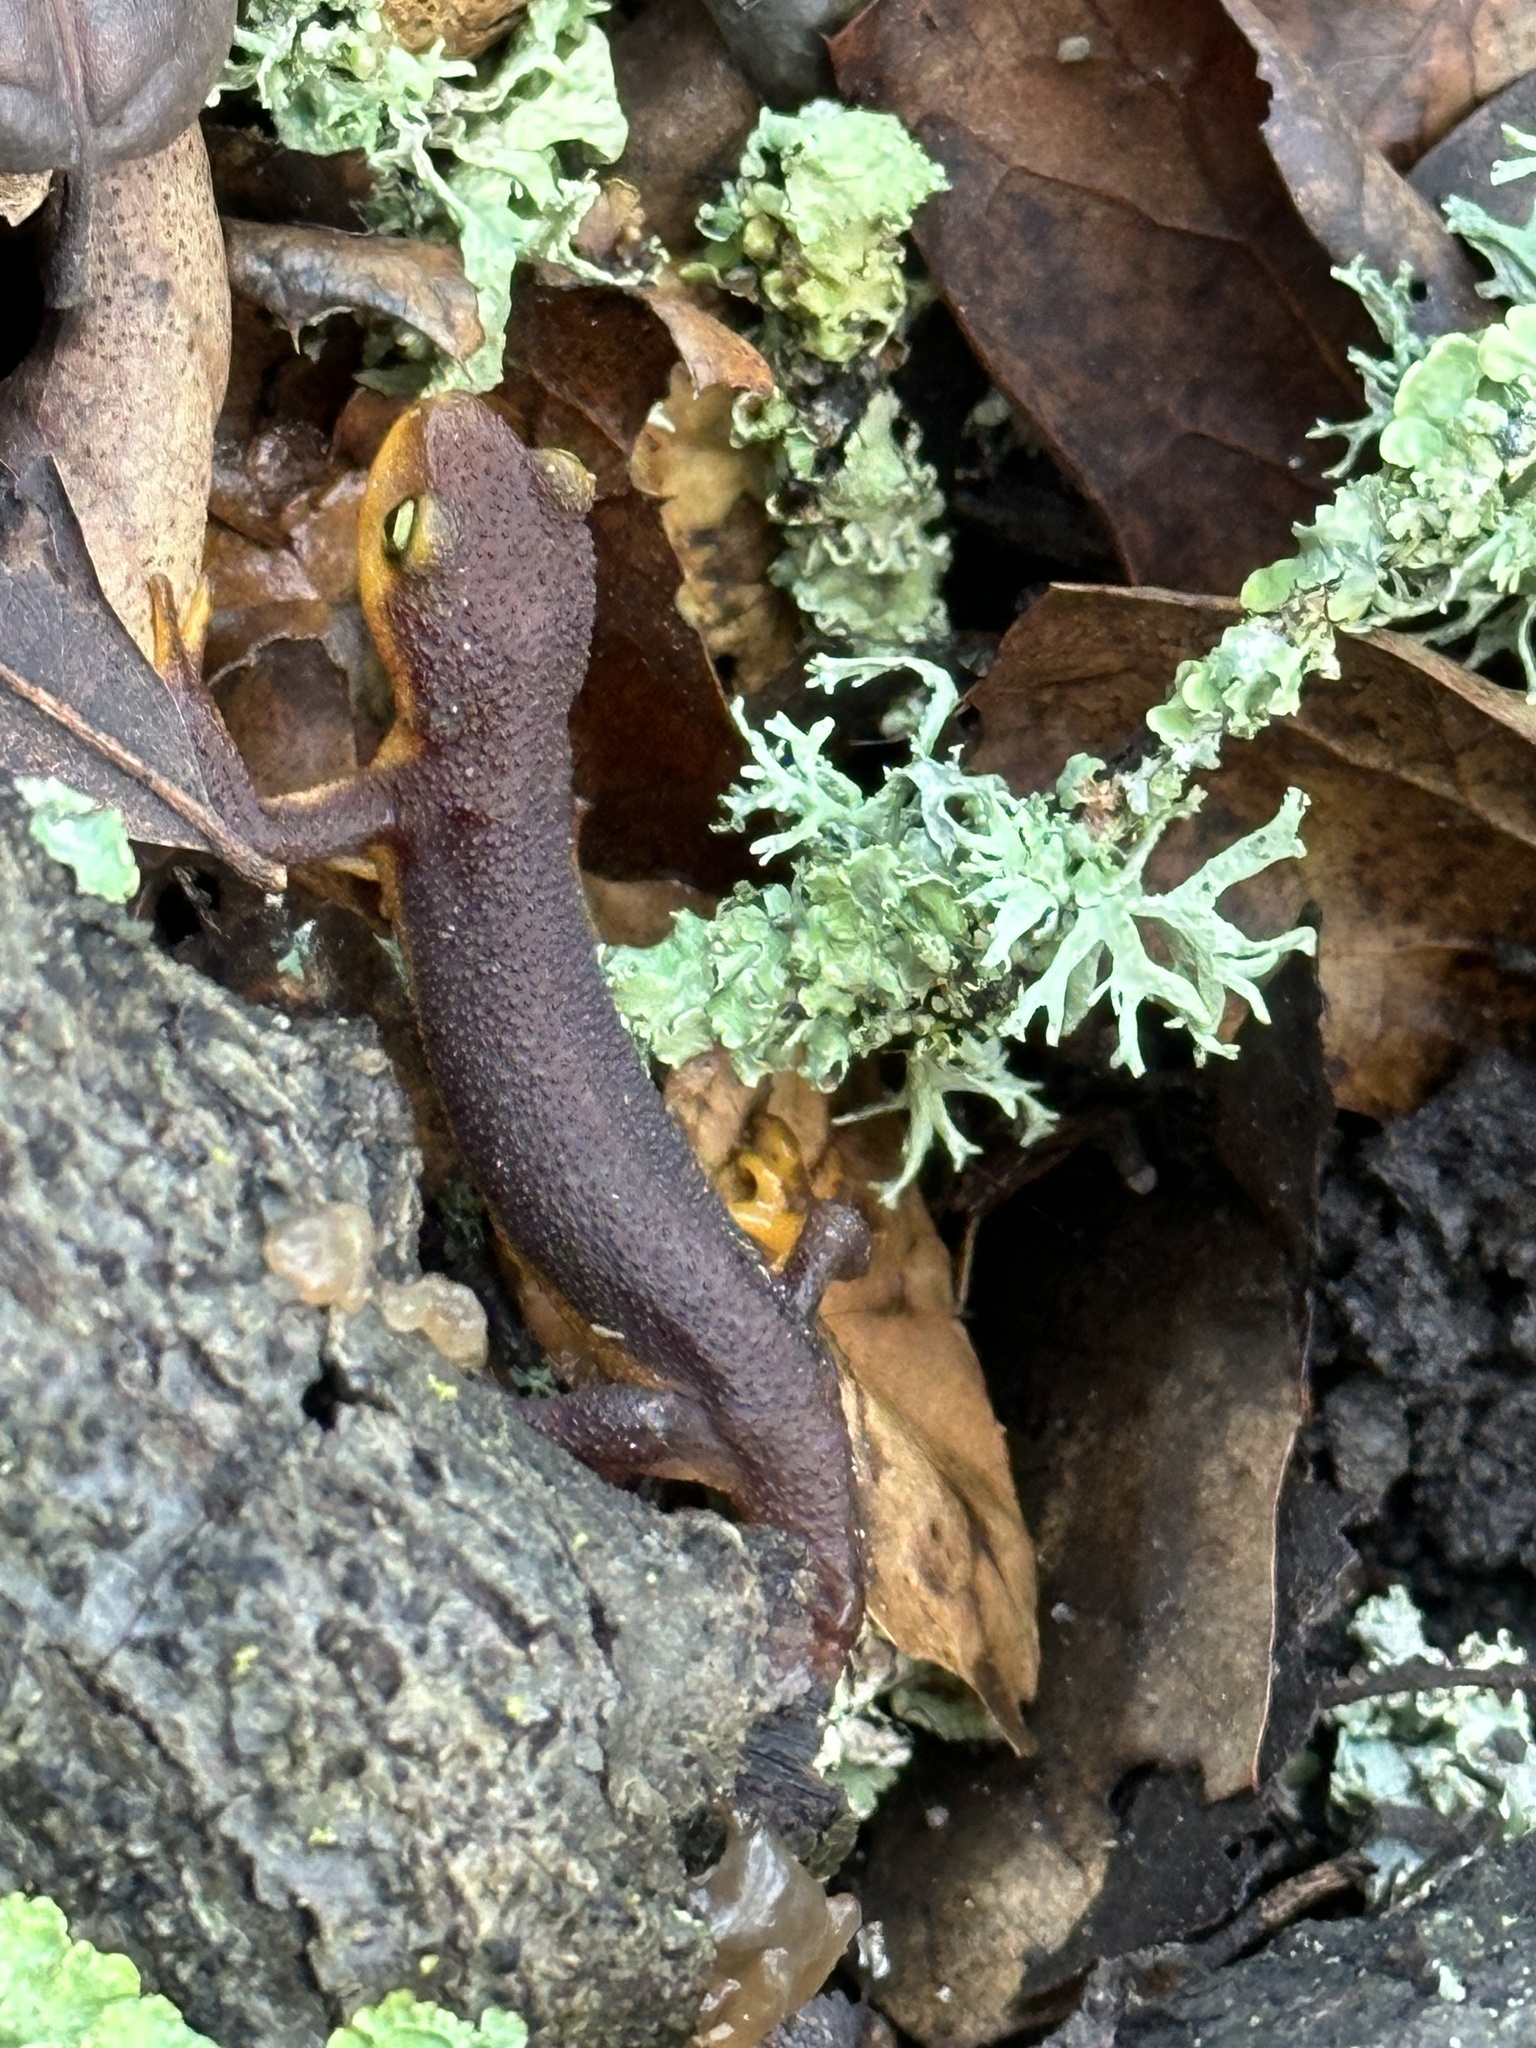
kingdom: Animalia
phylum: Chordata
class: Amphibia
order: Caudata
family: Salamandridae
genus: Taricha
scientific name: Taricha torosa
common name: California newt
